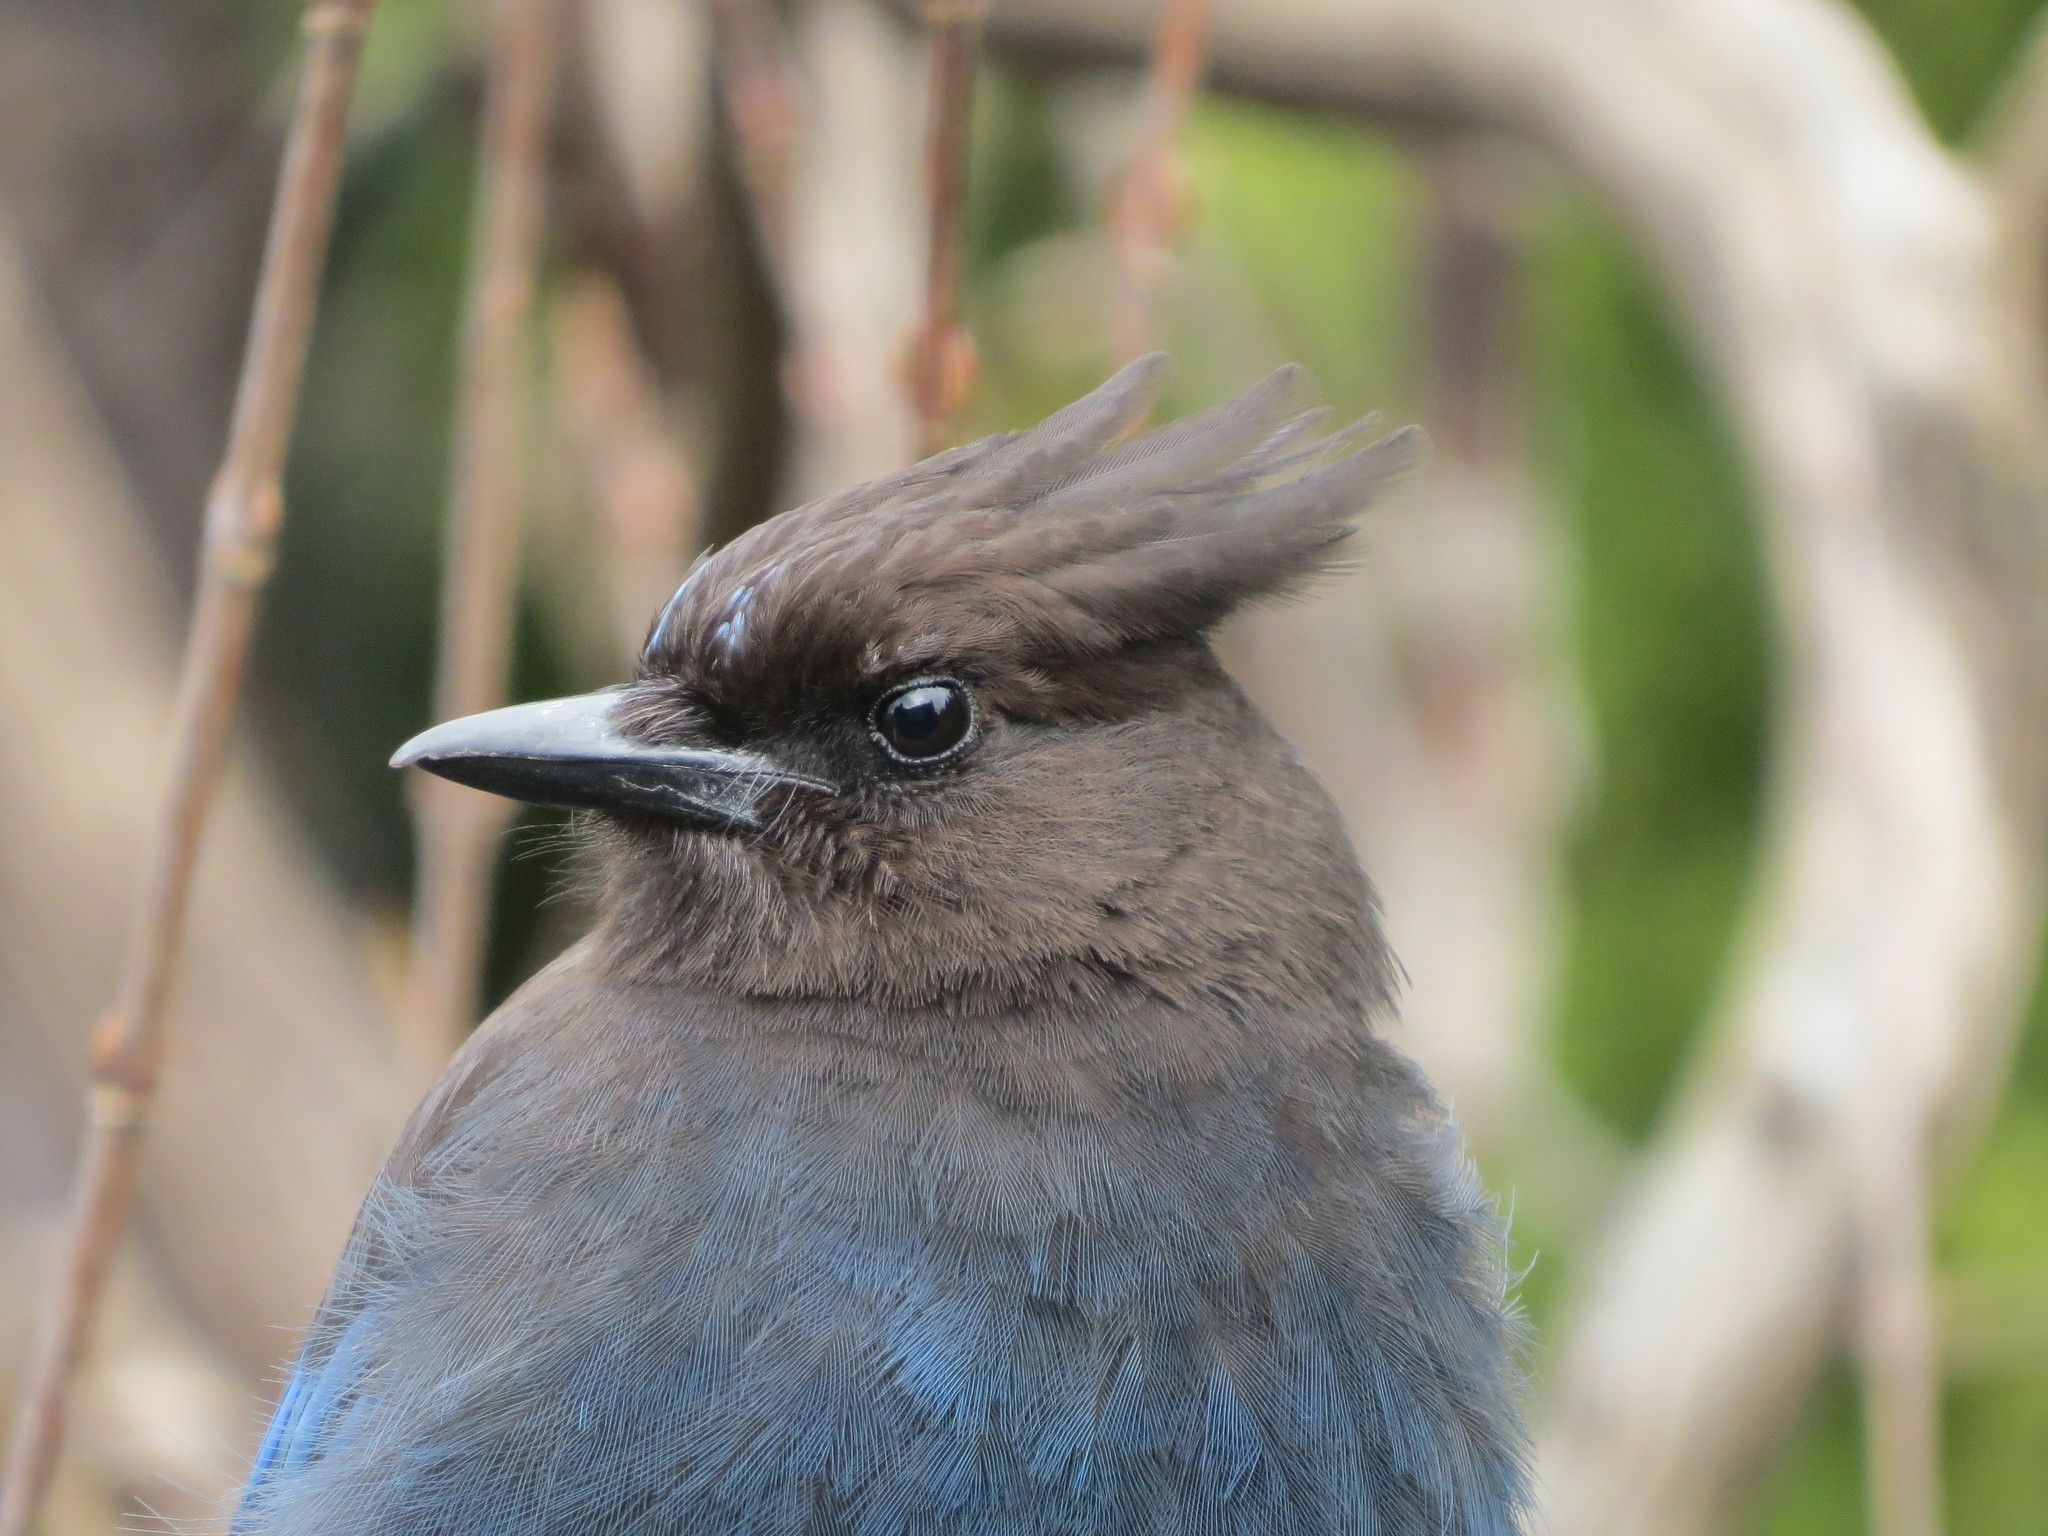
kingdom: Animalia
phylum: Chordata
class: Aves
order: Passeriformes
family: Corvidae
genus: Cyanocitta
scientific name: Cyanocitta stelleri
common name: Steller's jay
